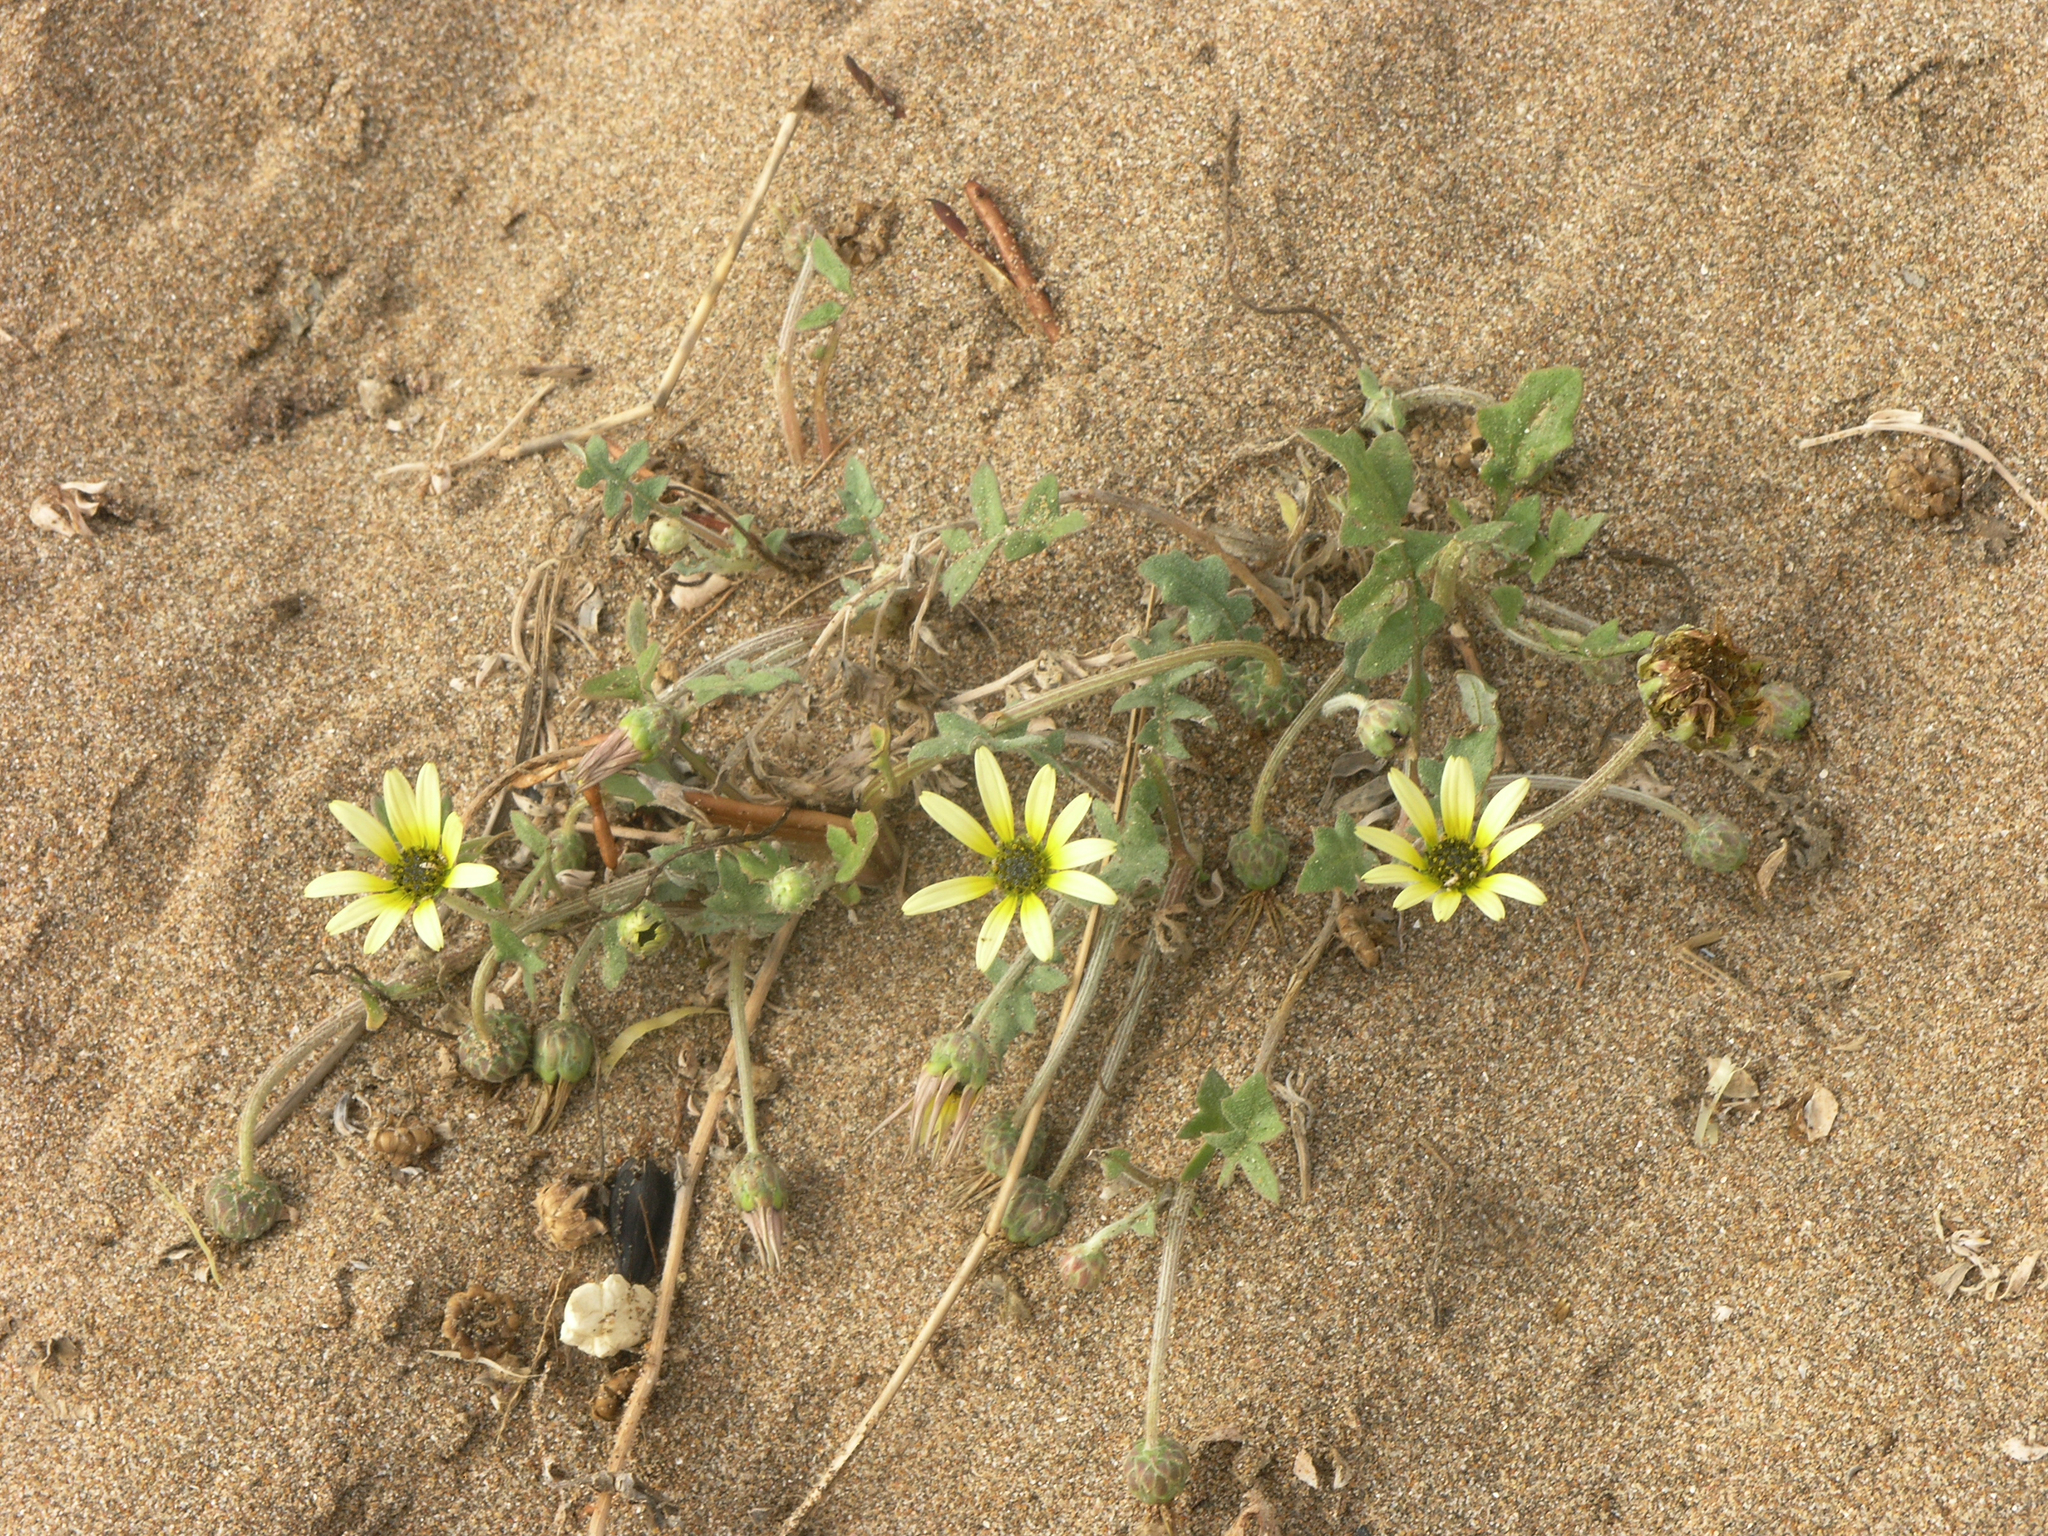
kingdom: Plantae
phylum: Tracheophyta
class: Magnoliopsida
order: Asterales
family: Asteraceae
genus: Arctotheca
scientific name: Arctotheca calendula
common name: Capeweed
